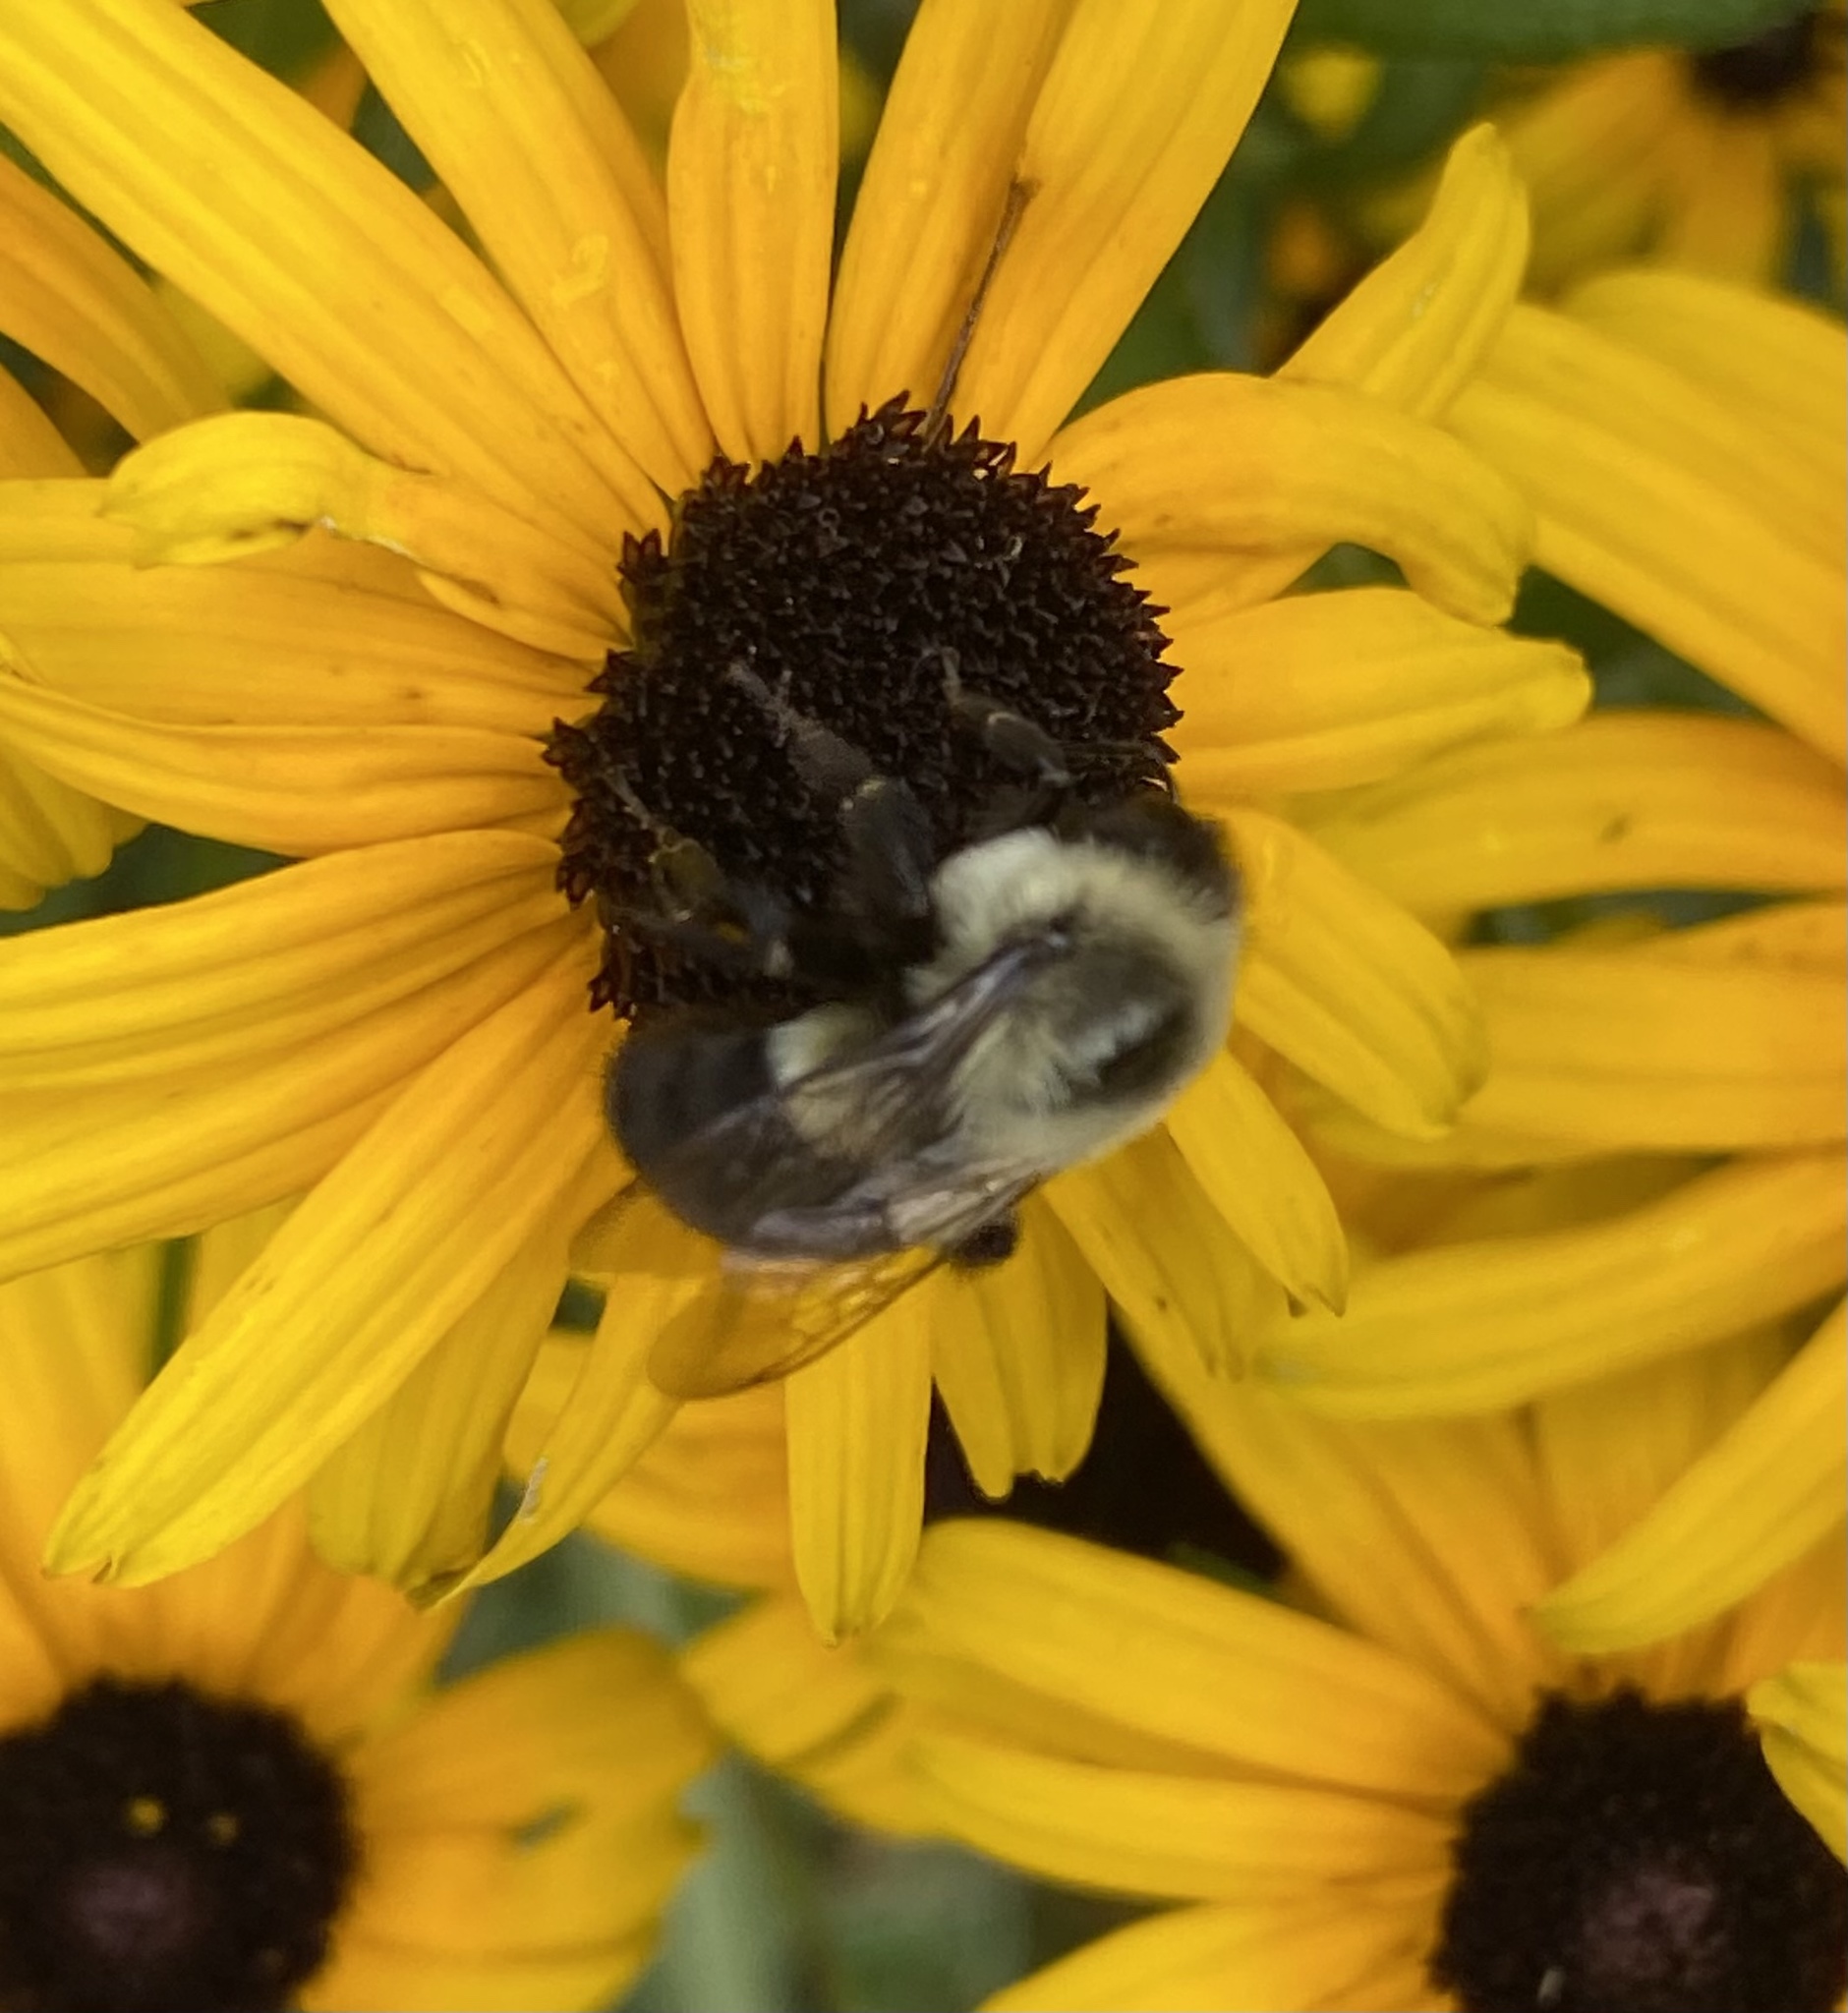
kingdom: Animalia
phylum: Arthropoda
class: Insecta
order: Hymenoptera
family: Apidae
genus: Bombus
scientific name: Bombus impatiens
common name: Common eastern bumble bee
